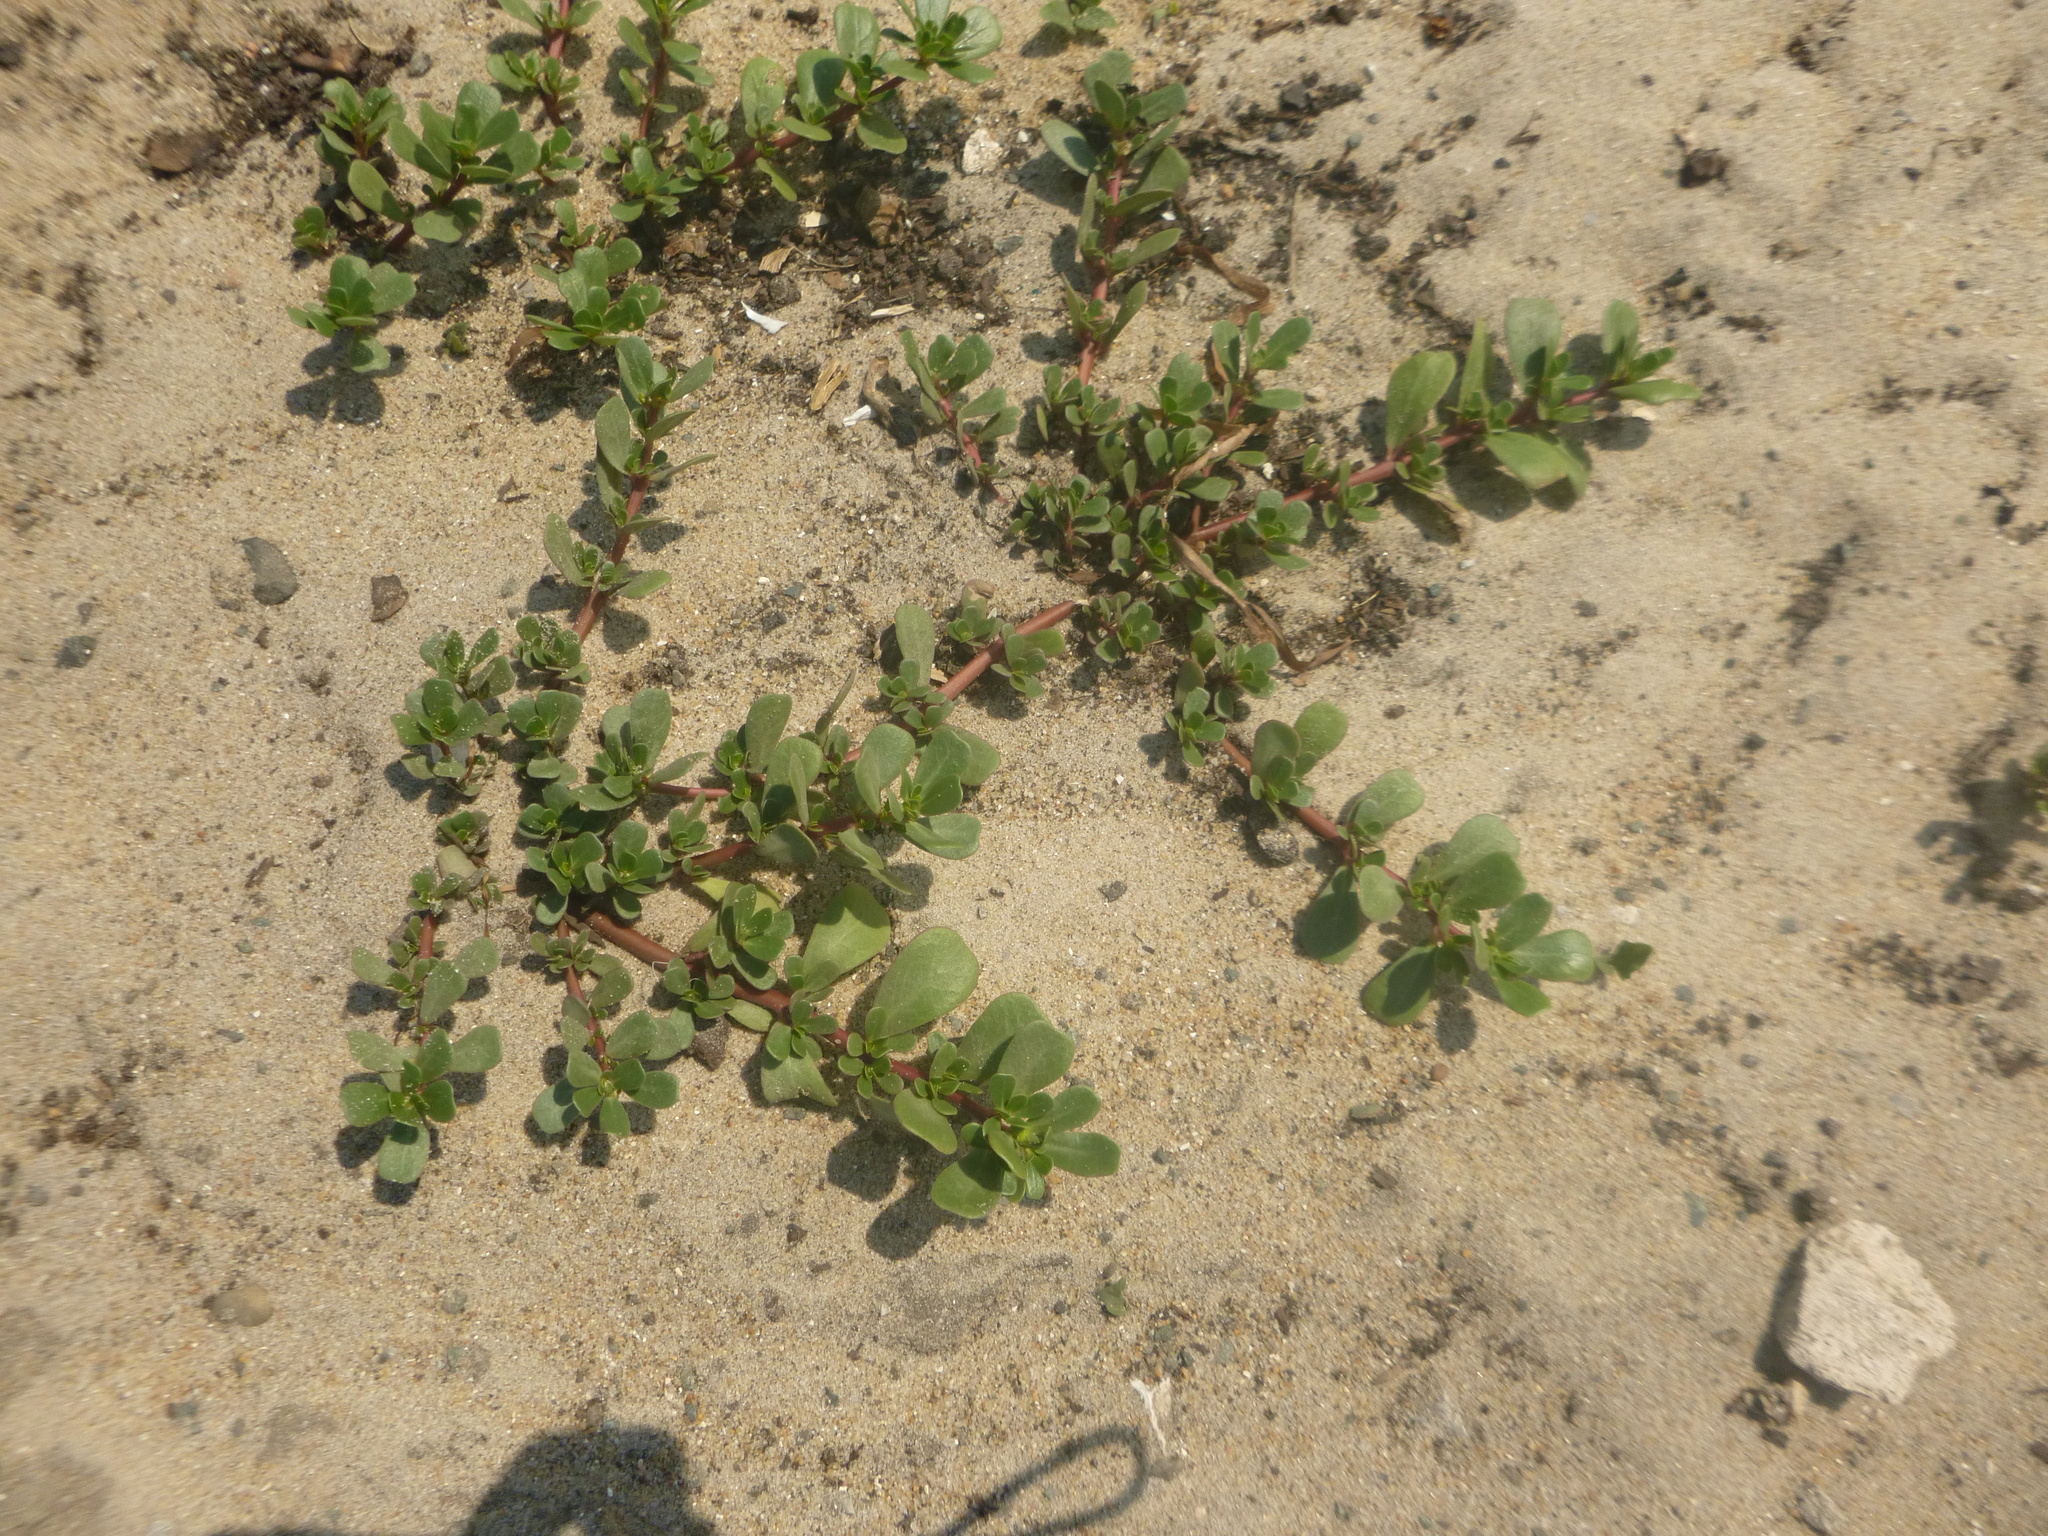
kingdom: Plantae
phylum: Tracheophyta
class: Magnoliopsida
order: Caryophyllales
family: Portulacaceae
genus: Portulaca
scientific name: Portulaca oleracea
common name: Common purslane
